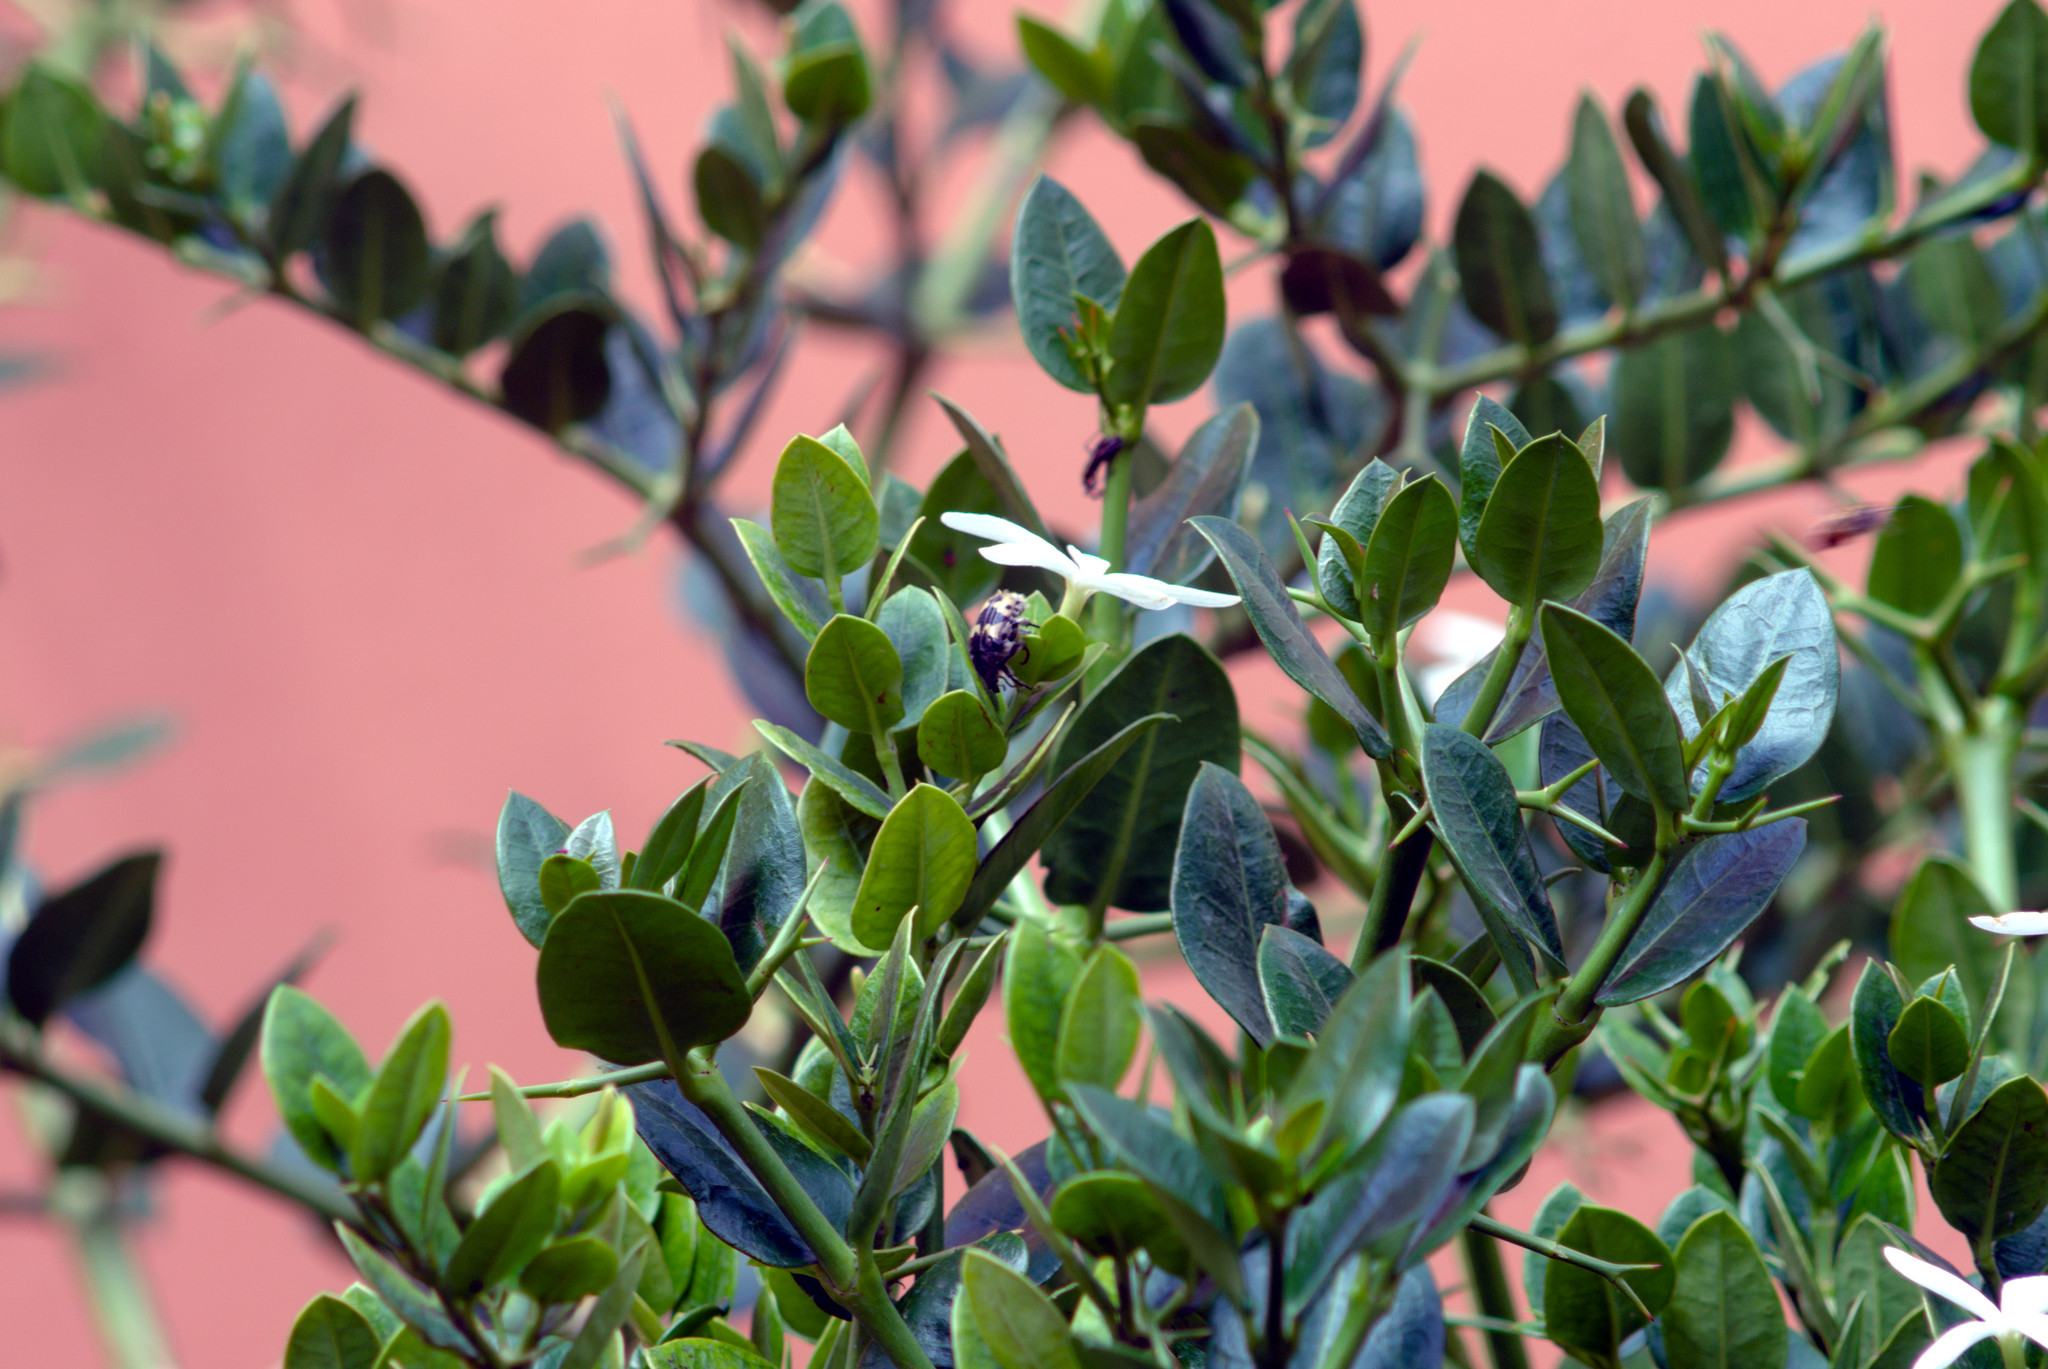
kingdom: Animalia
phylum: Arthropoda
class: Insecta
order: Coleoptera
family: Scarabaeidae
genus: Euphoria
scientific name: Euphoria basalis
